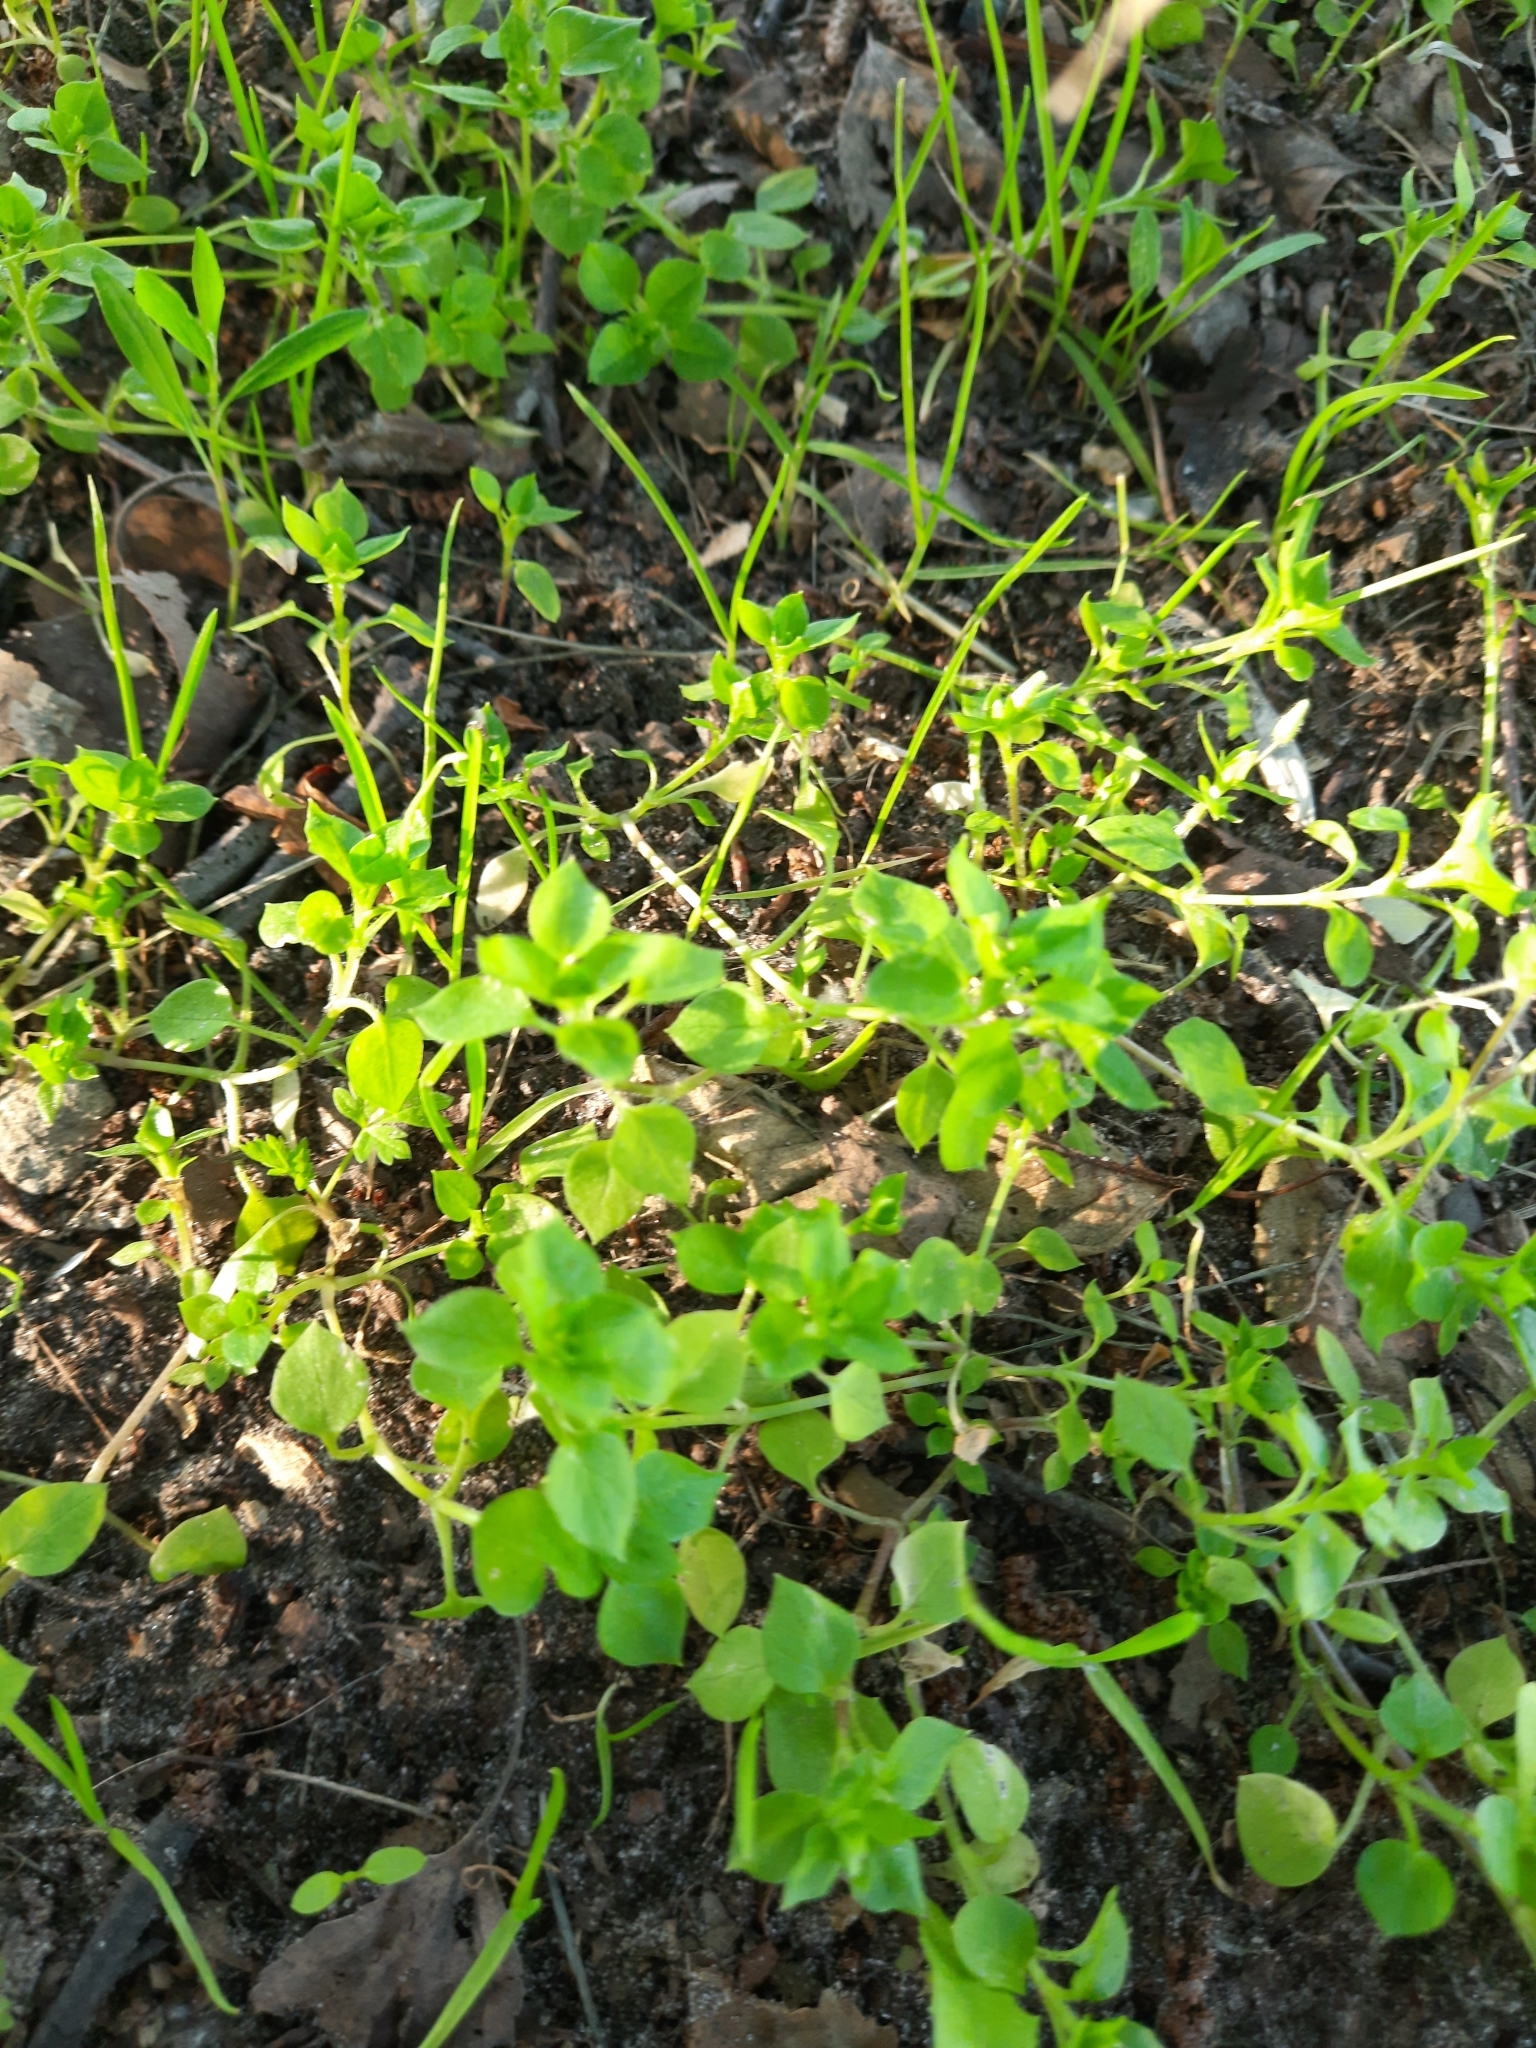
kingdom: Plantae
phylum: Tracheophyta
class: Magnoliopsida
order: Caryophyllales
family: Caryophyllaceae
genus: Stellaria
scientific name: Stellaria media
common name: Common chickweed
